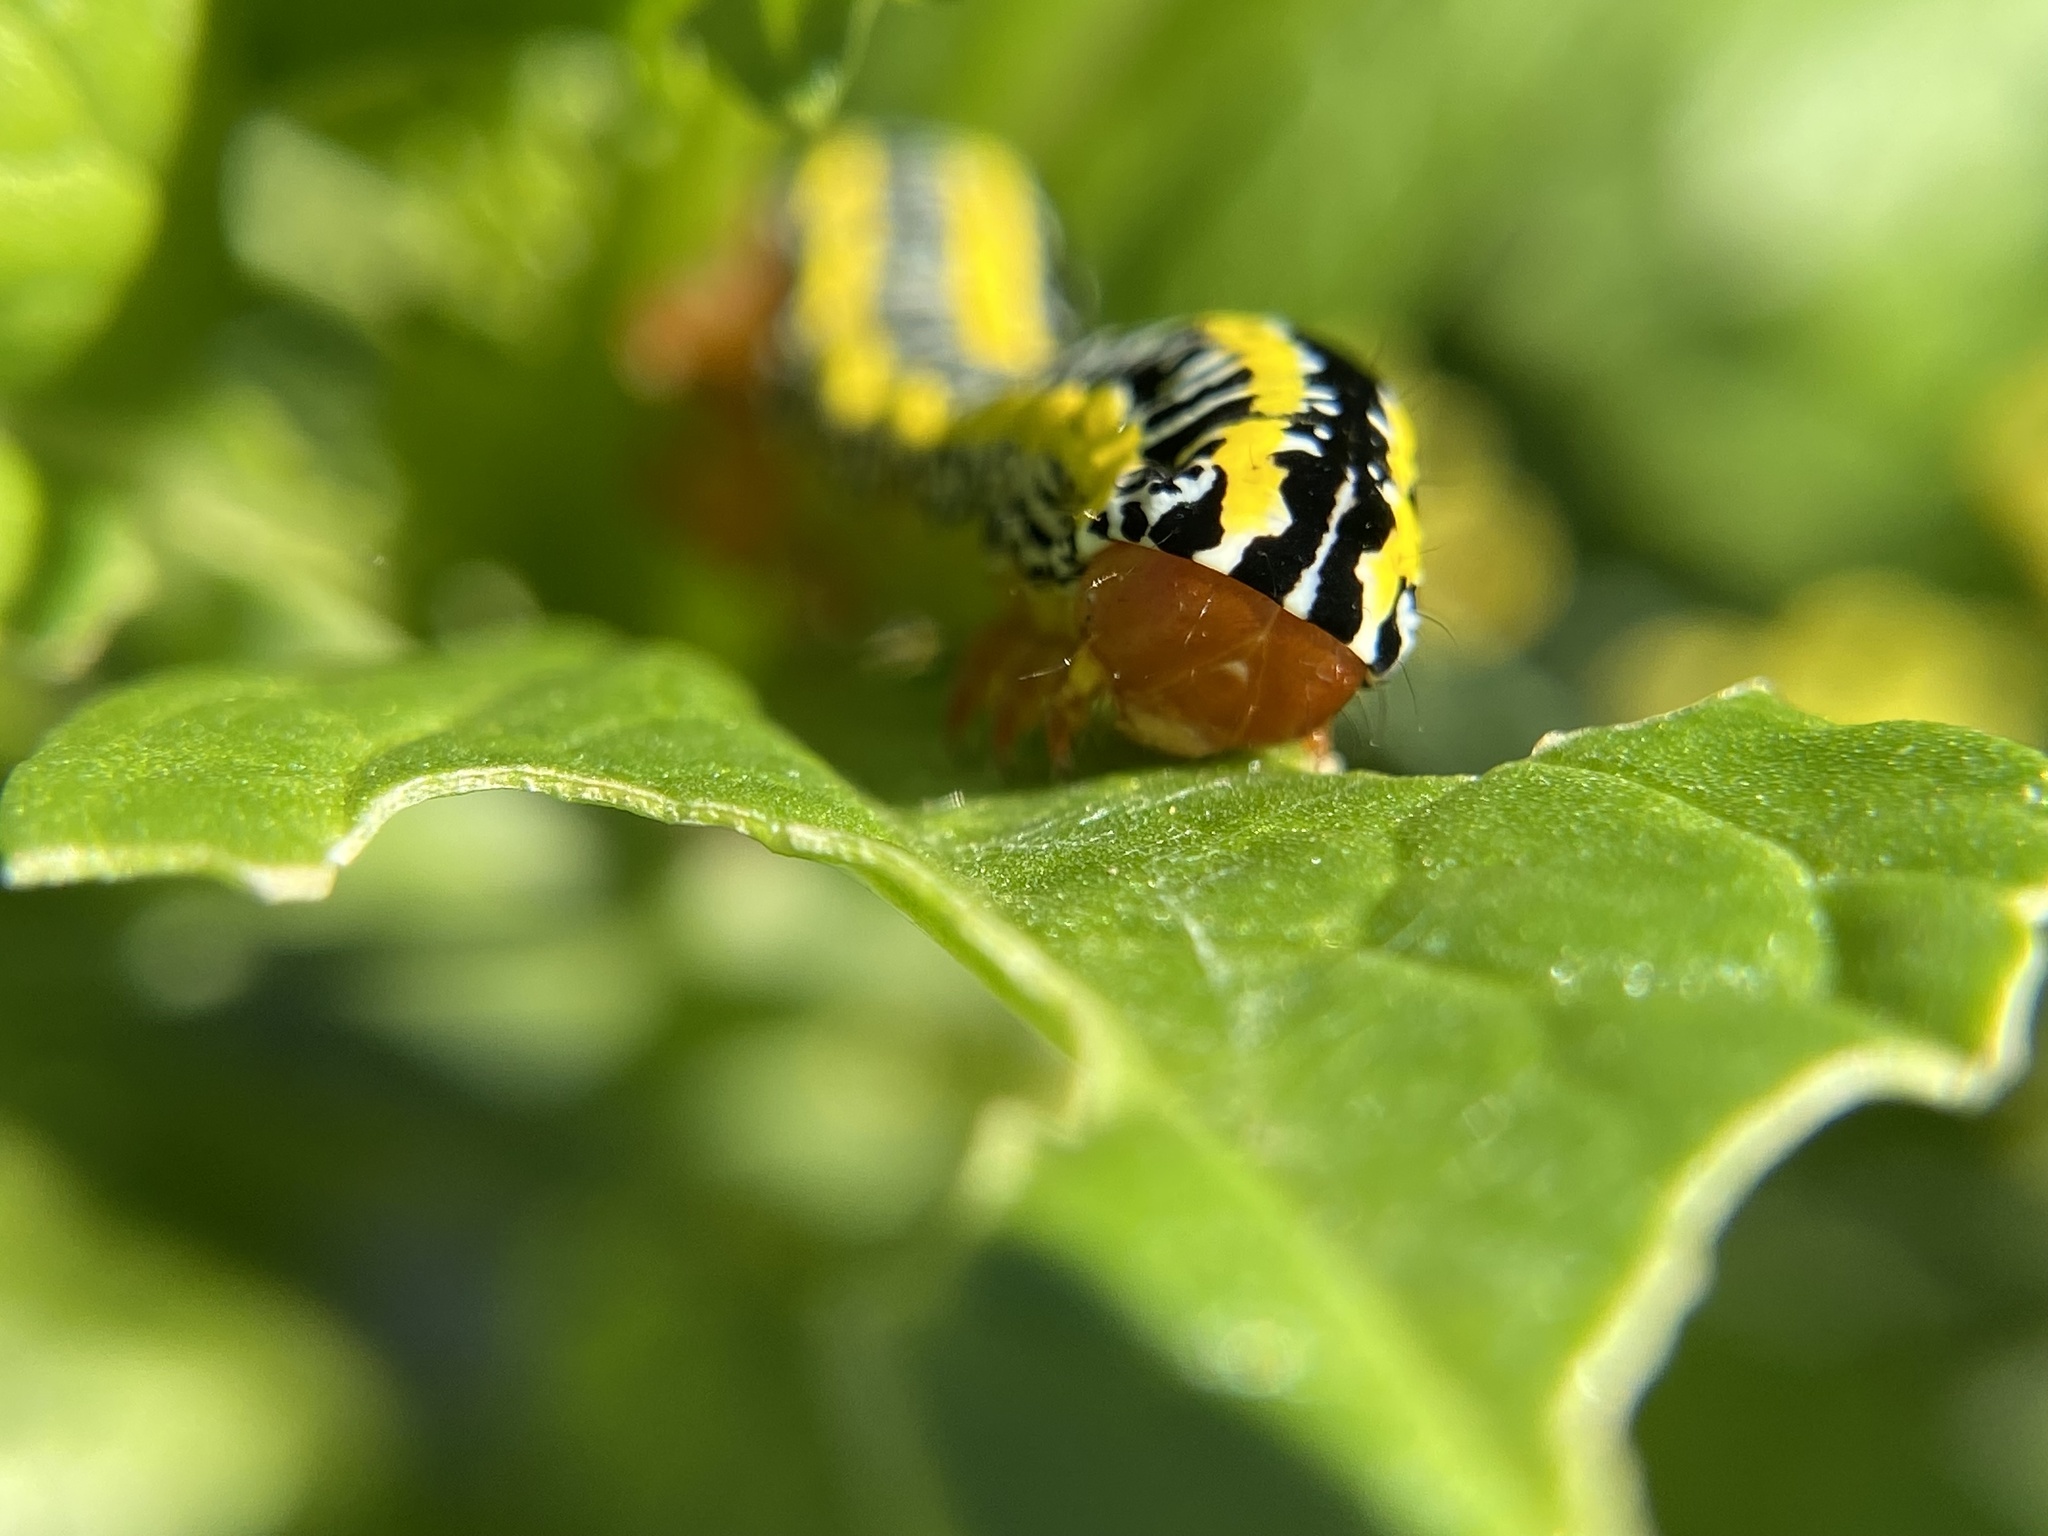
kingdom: Animalia
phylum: Arthropoda
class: Insecta
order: Lepidoptera
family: Noctuidae
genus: Melanchra
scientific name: Melanchra picta
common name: Zebra caterpillar
